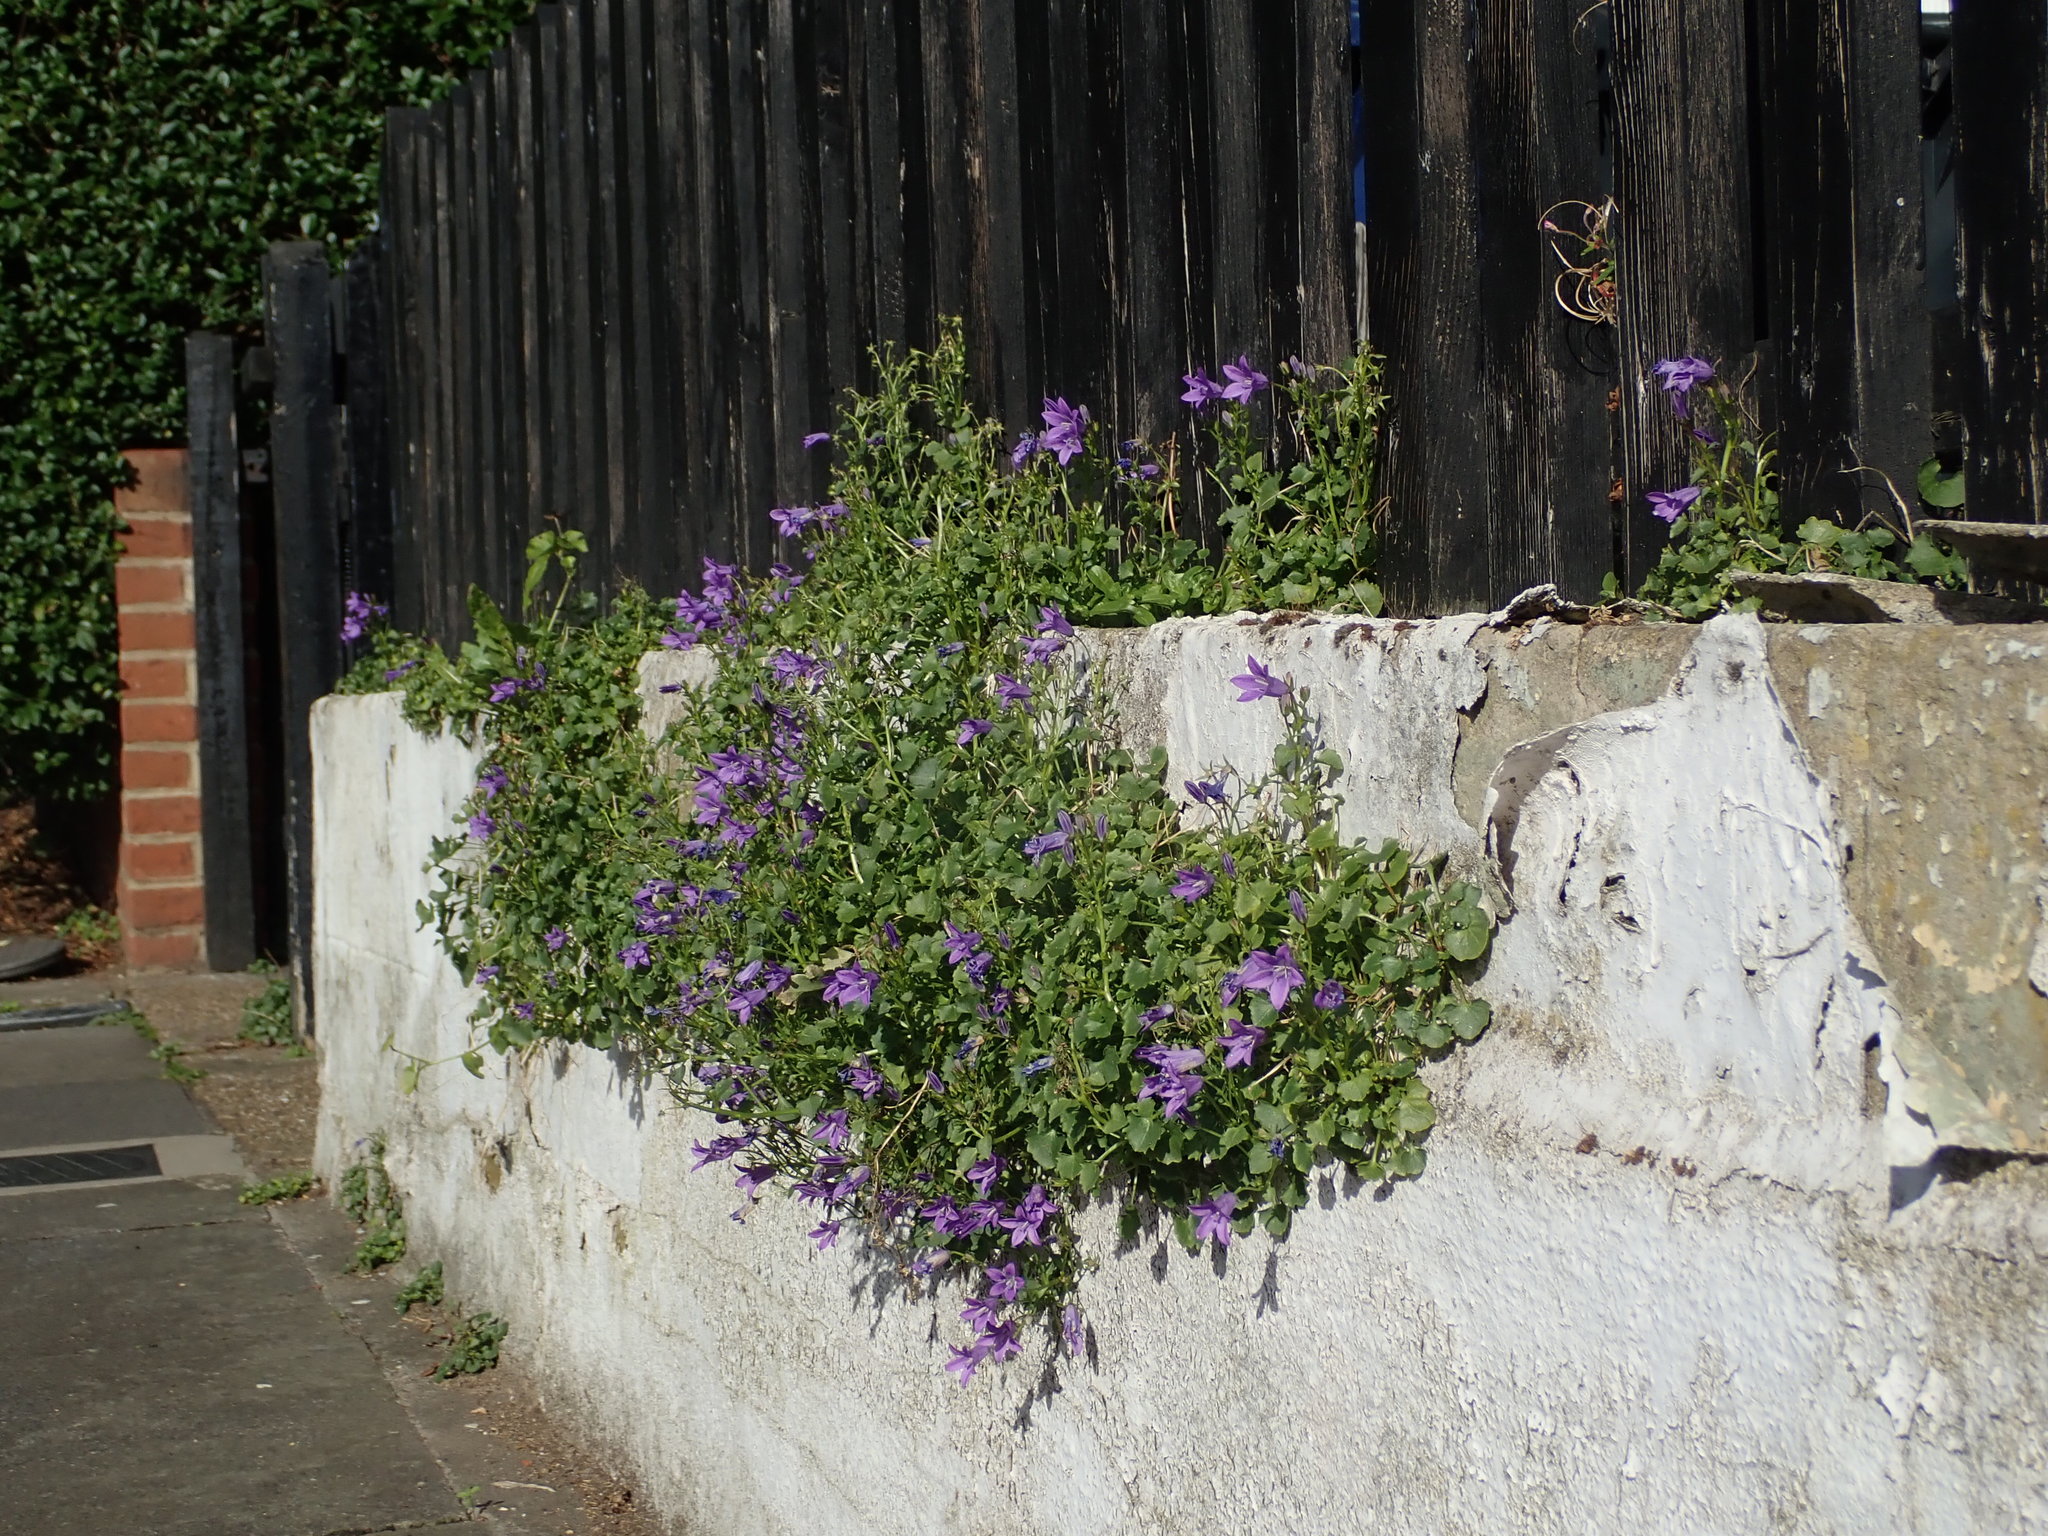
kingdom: Plantae
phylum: Tracheophyta
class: Magnoliopsida
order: Asterales
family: Campanulaceae
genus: Campanula
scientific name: Campanula portenschlagiana
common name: Adria bellflower
